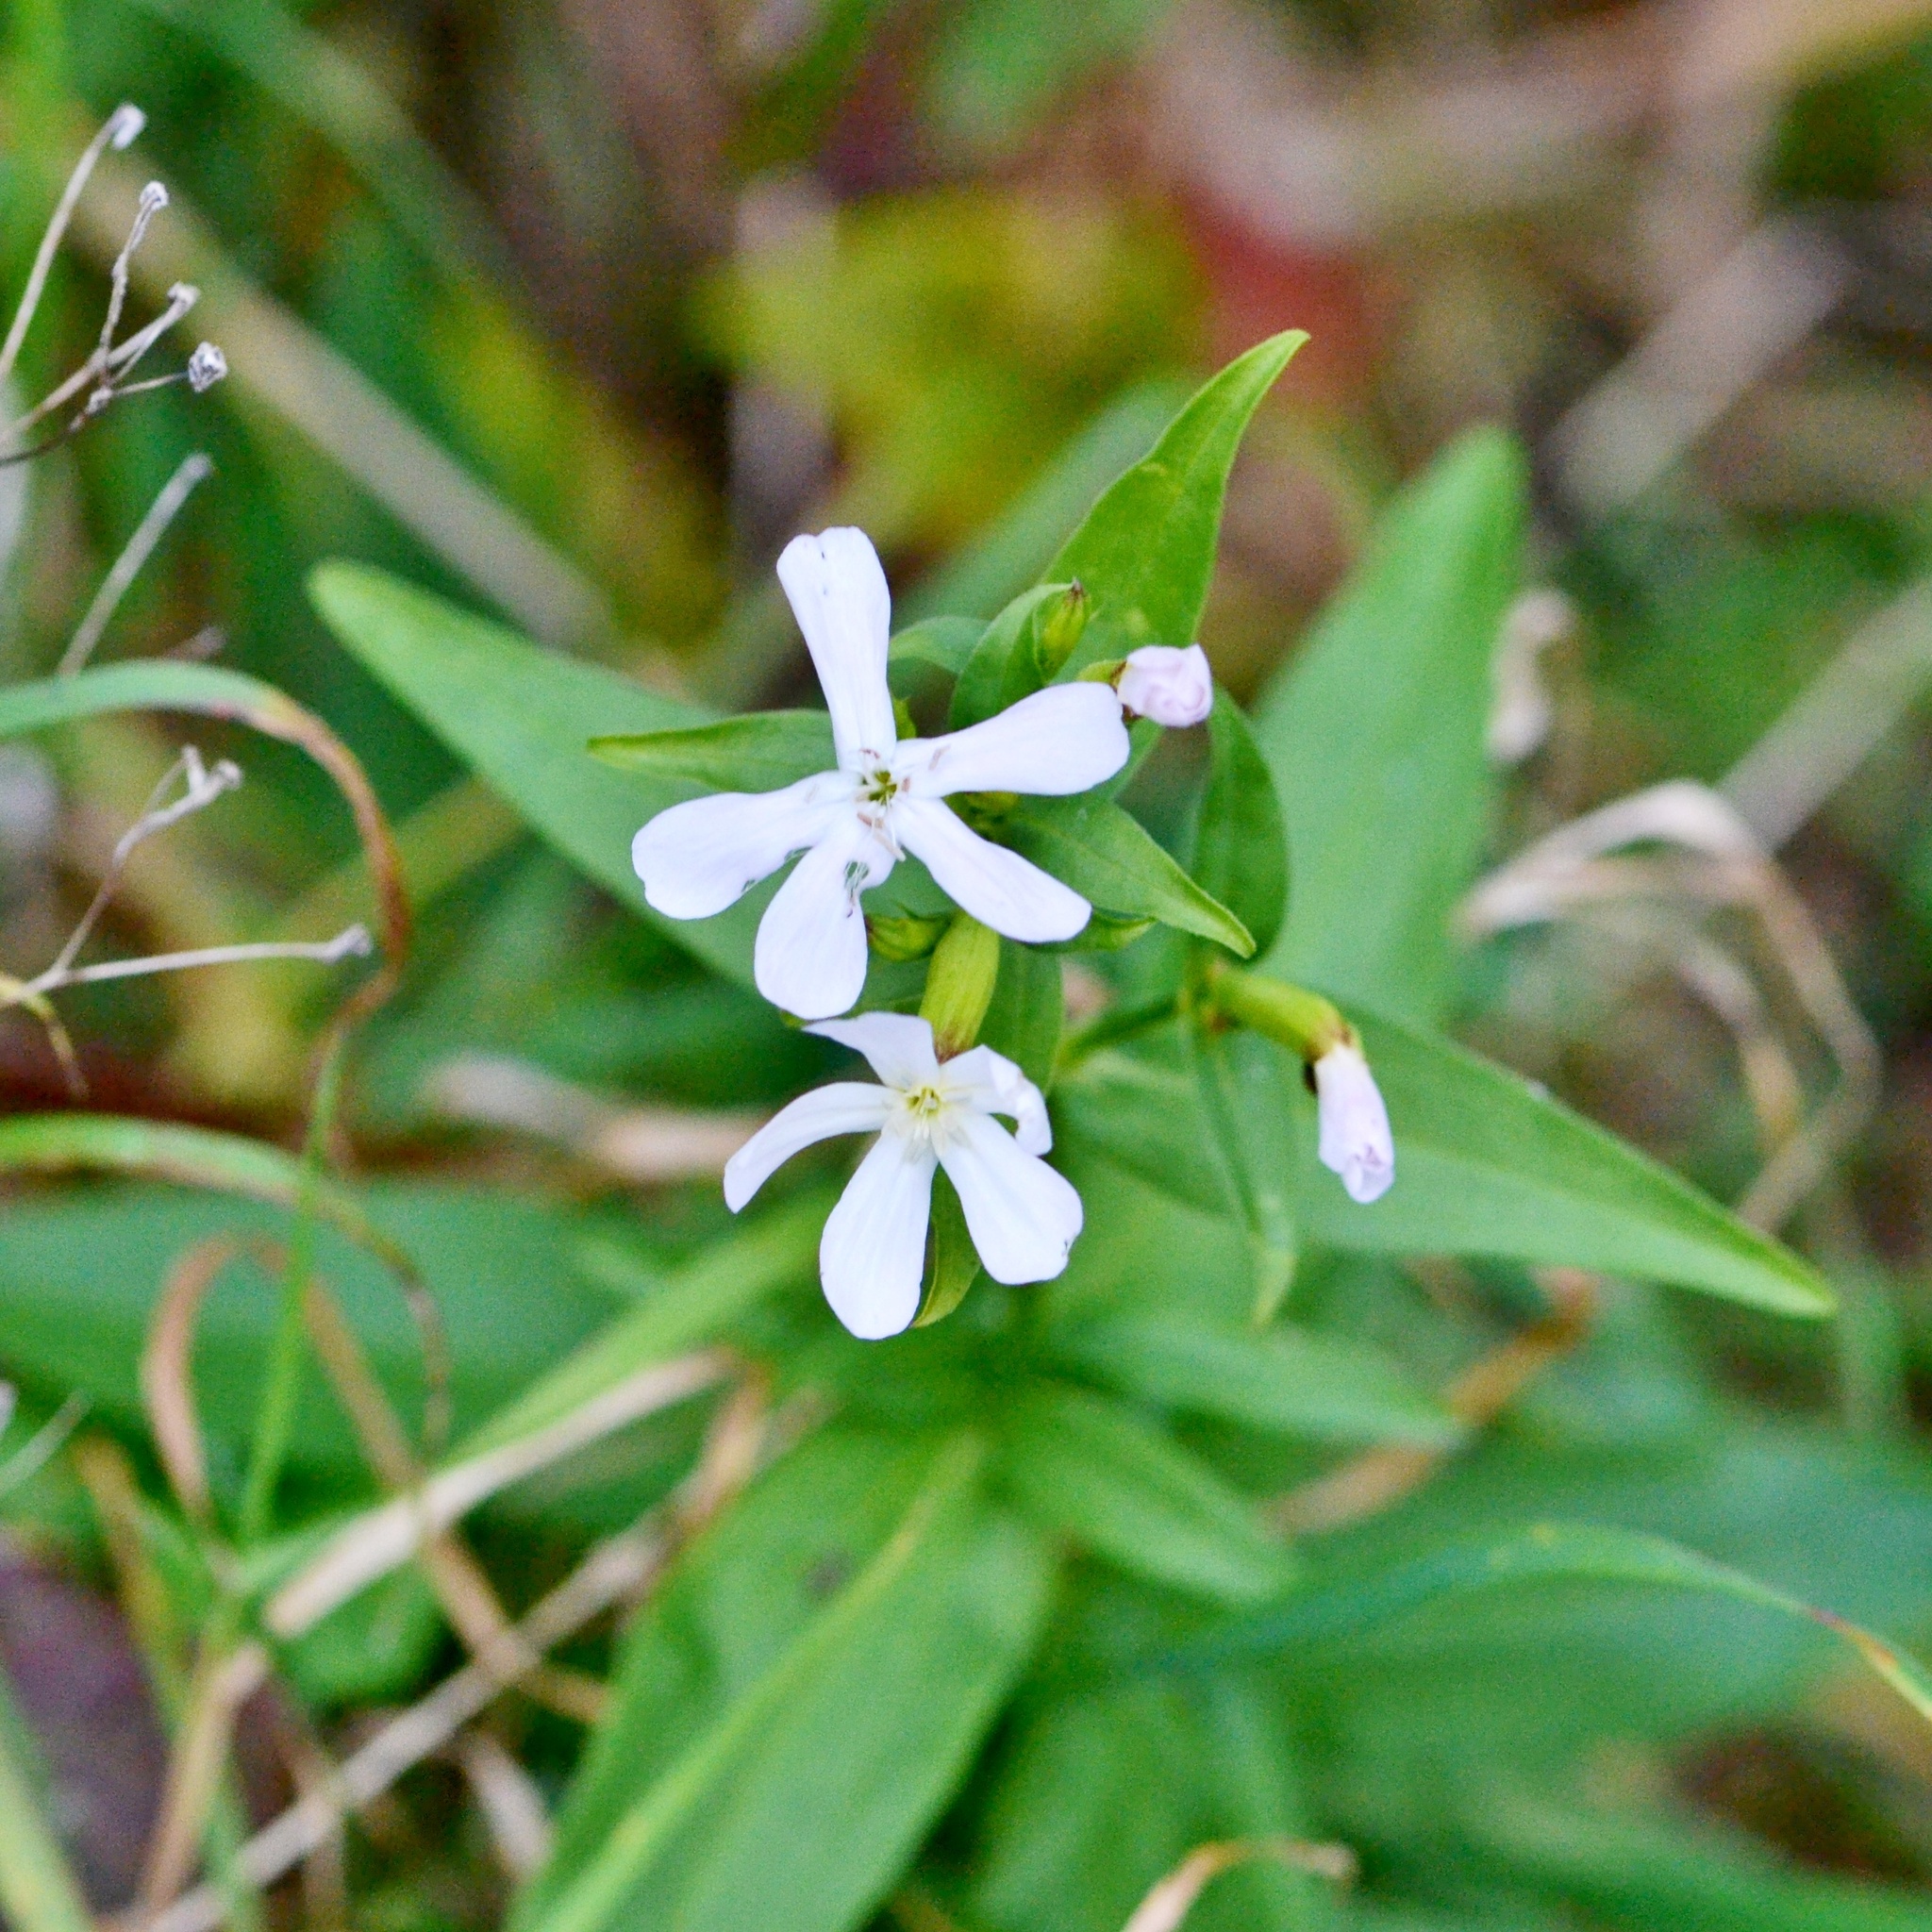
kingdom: Plantae
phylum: Tracheophyta
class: Magnoliopsida
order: Caryophyllales
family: Caryophyllaceae
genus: Saponaria
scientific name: Saponaria officinalis
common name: Soapwort
